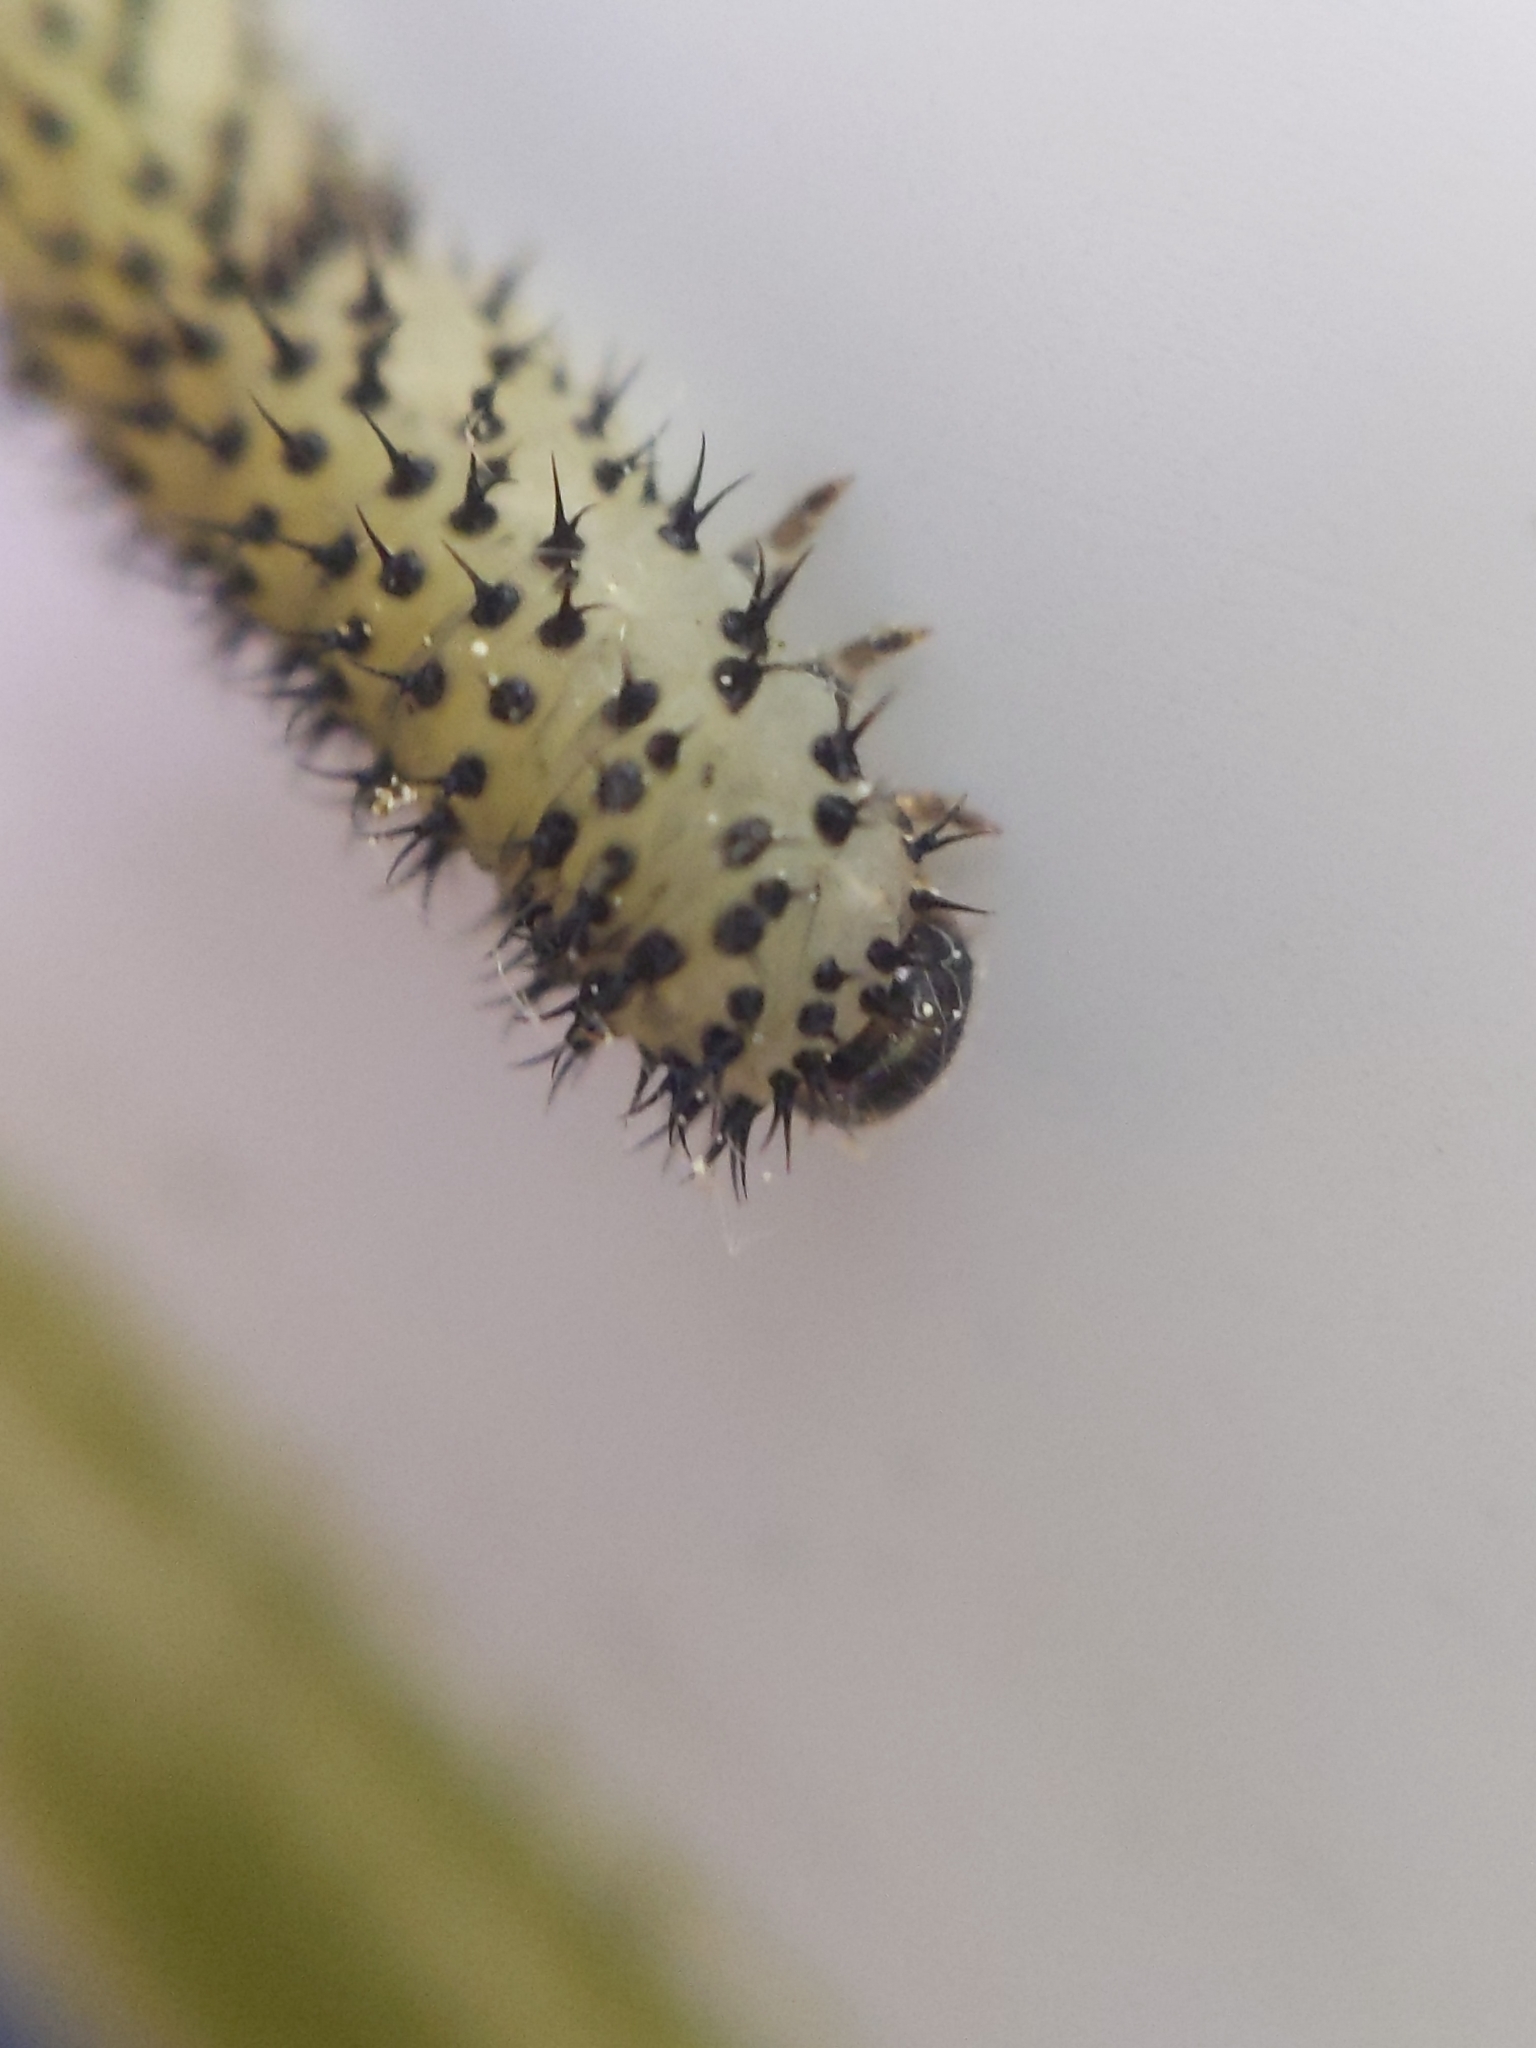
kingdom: Animalia
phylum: Arthropoda
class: Insecta
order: Hymenoptera
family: Tenthredinidae
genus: Periclista
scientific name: Periclista albida
